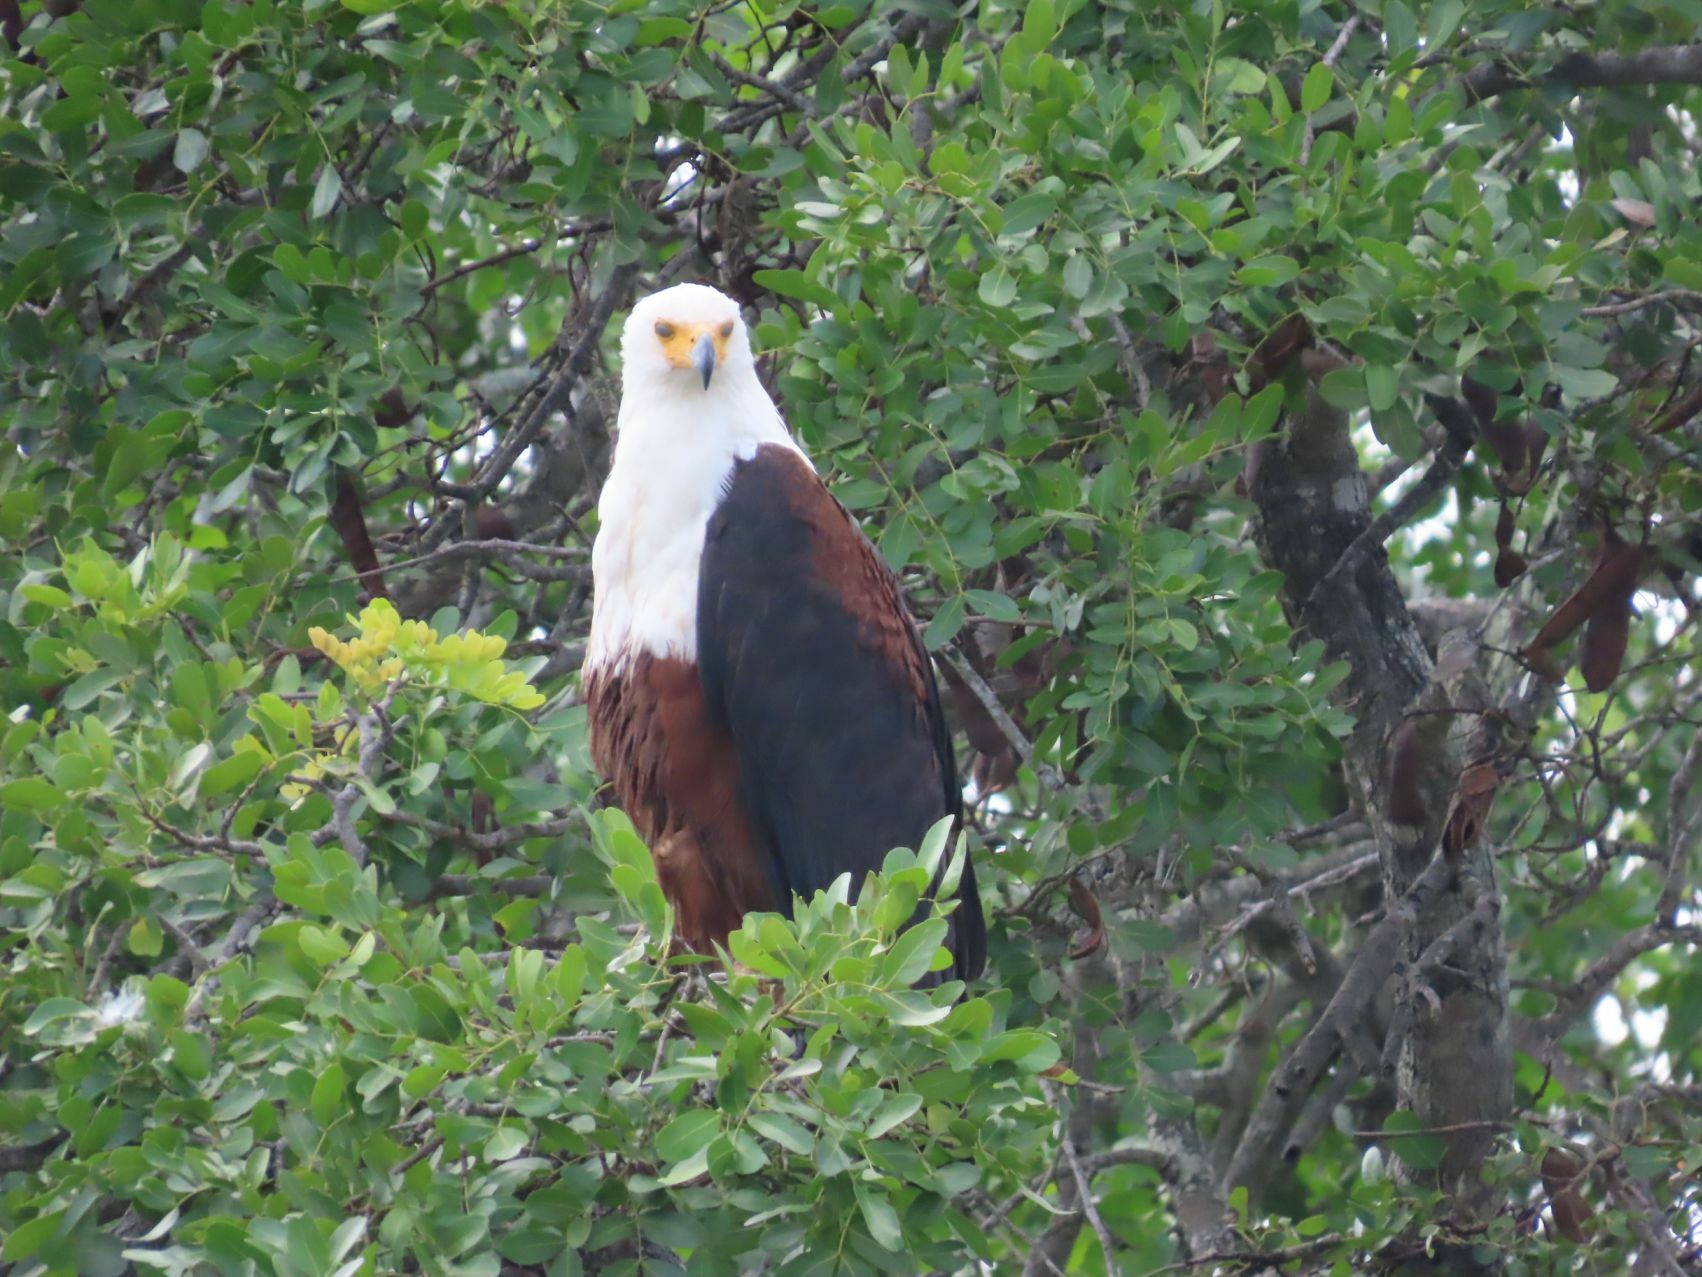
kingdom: Animalia
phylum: Chordata
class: Aves
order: Accipitriformes
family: Accipitridae
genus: Haliaeetus
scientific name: Haliaeetus vocifer
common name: African fish eagle
